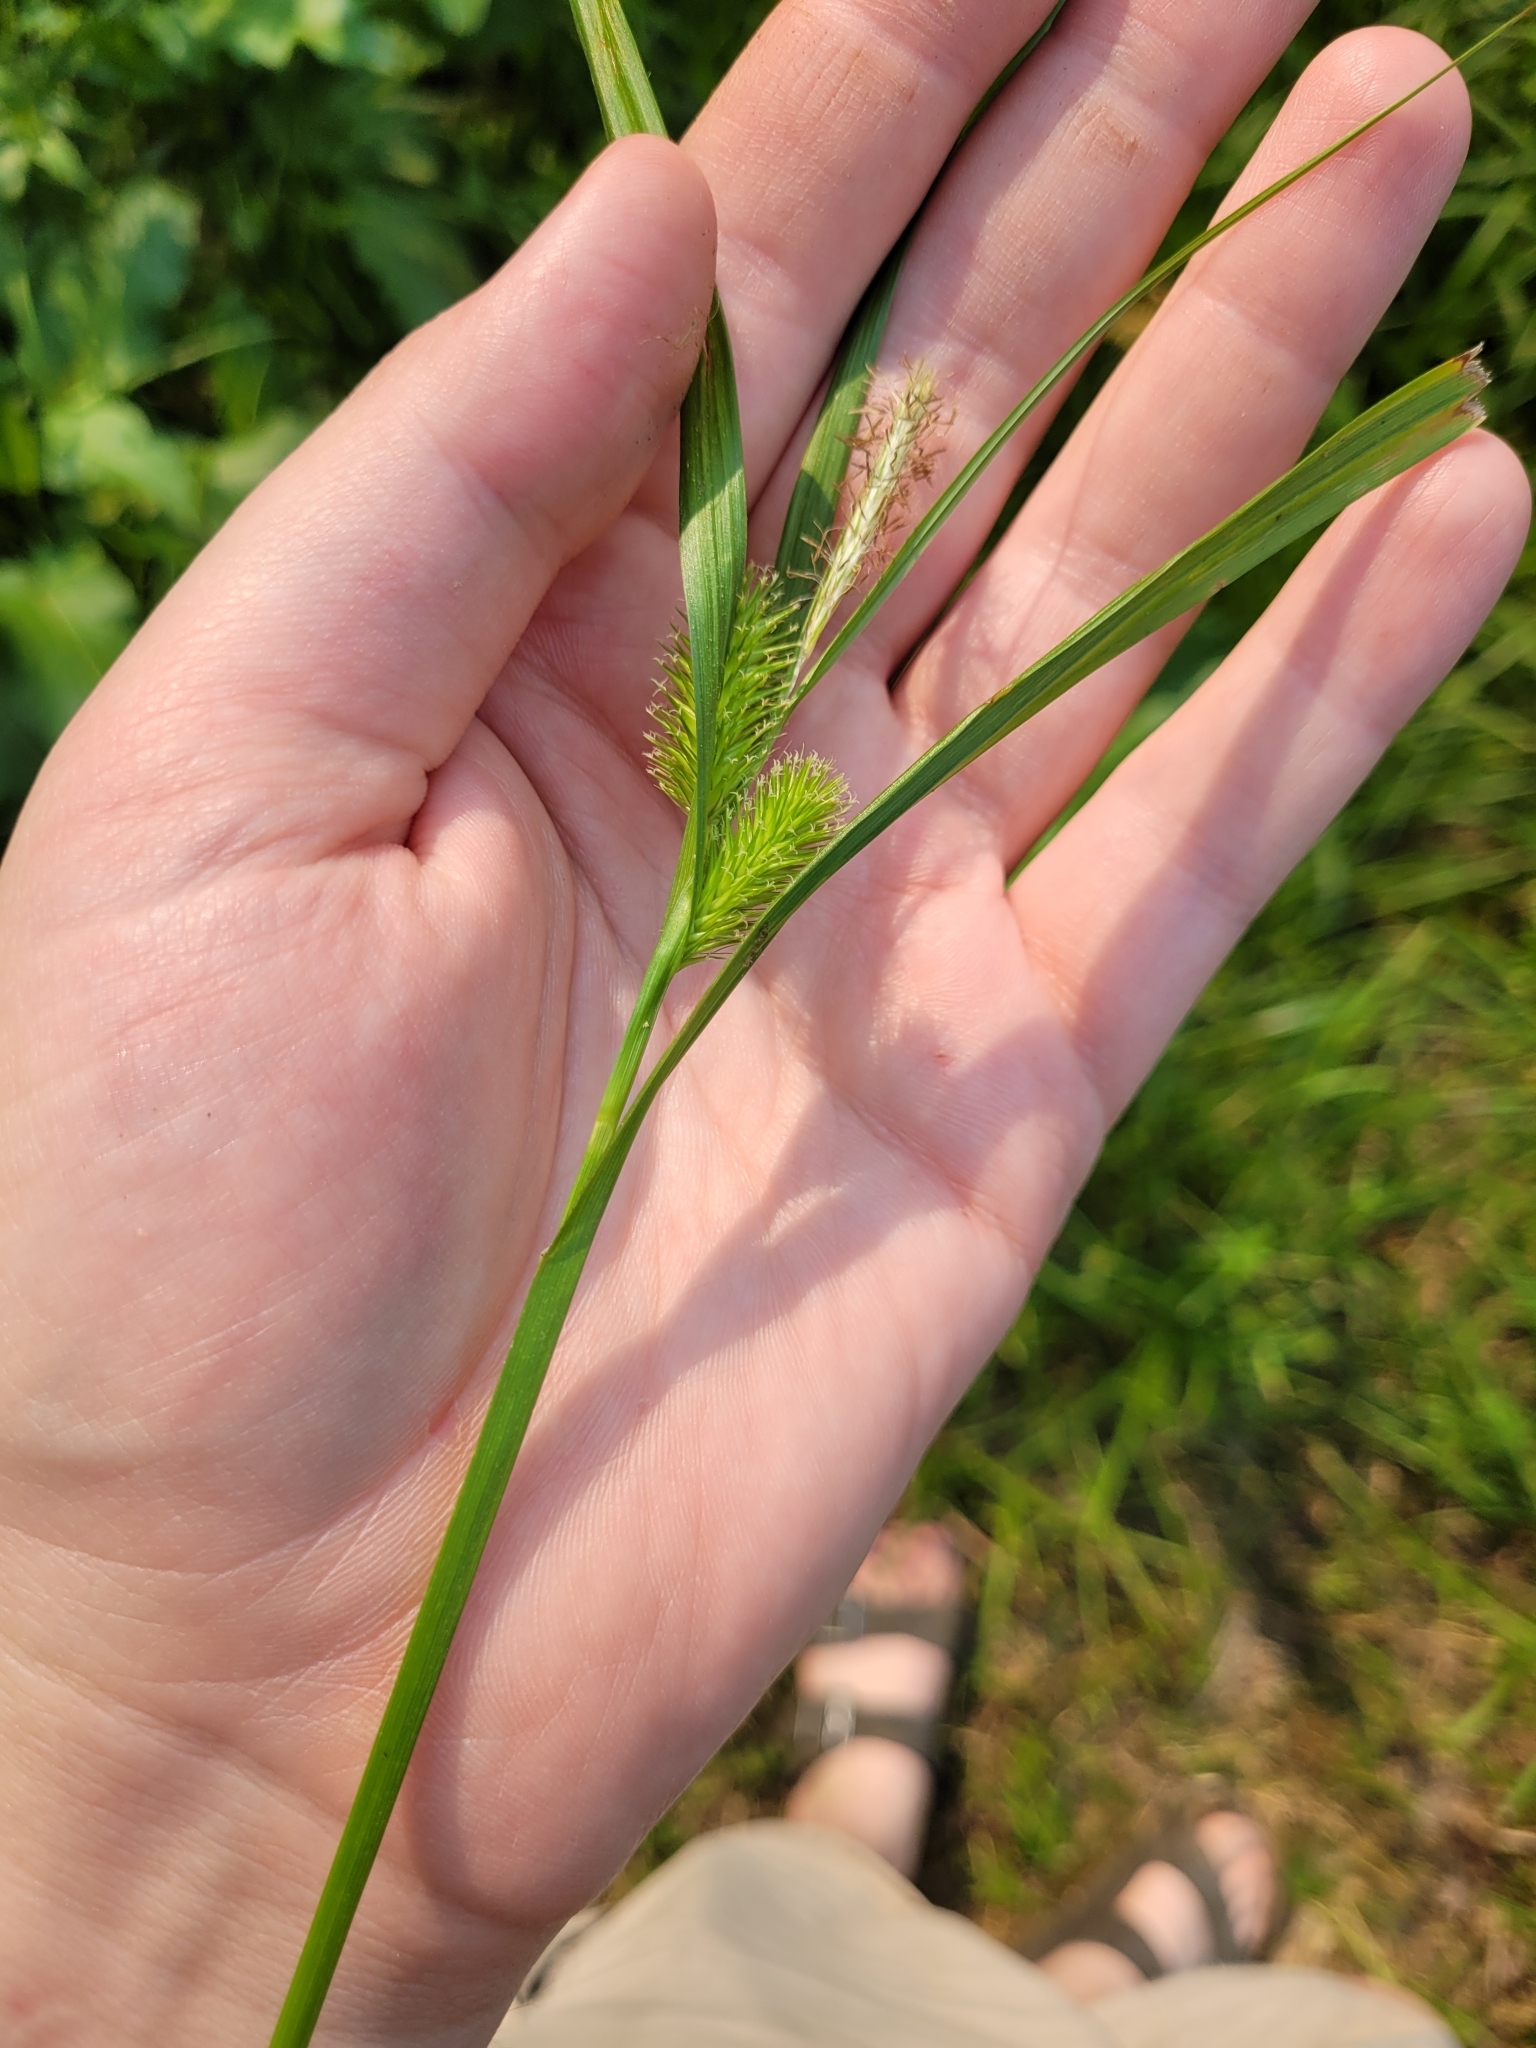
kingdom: Plantae
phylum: Tracheophyta
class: Liliopsida
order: Poales
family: Cyperaceae
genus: Carex
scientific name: Carex lurida
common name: Sallow sedge
